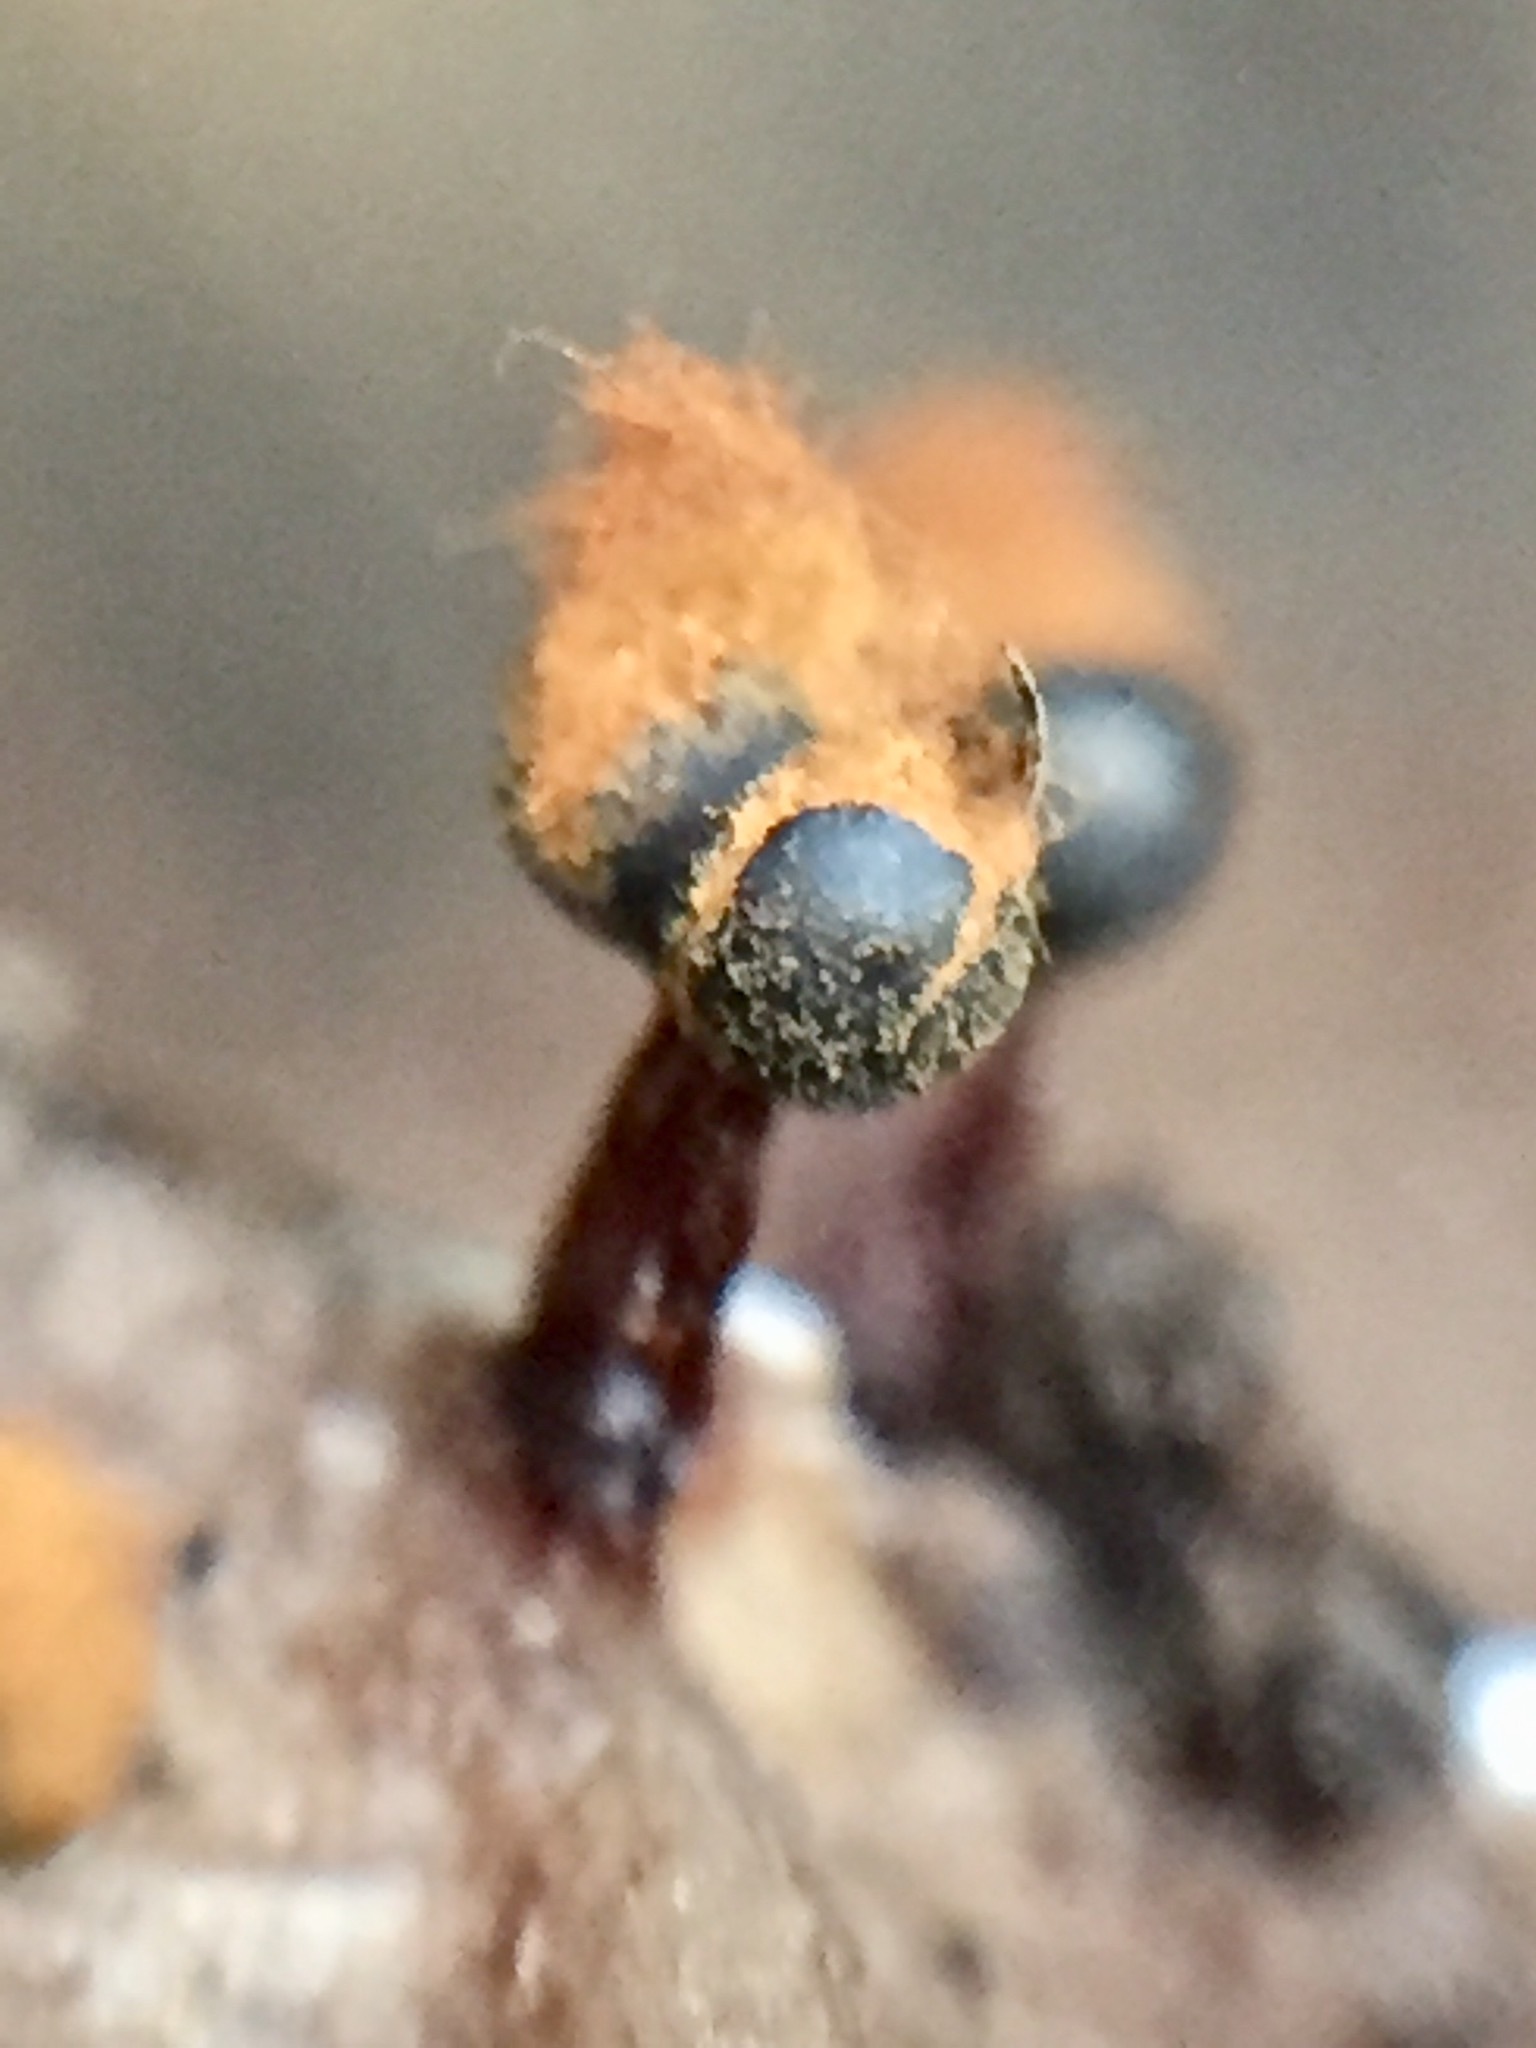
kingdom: Protozoa
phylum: Mycetozoa
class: Myxomycetes
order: Trichiales
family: Trichiaceae
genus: Metatrichia
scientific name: Metatrichia floriformis
